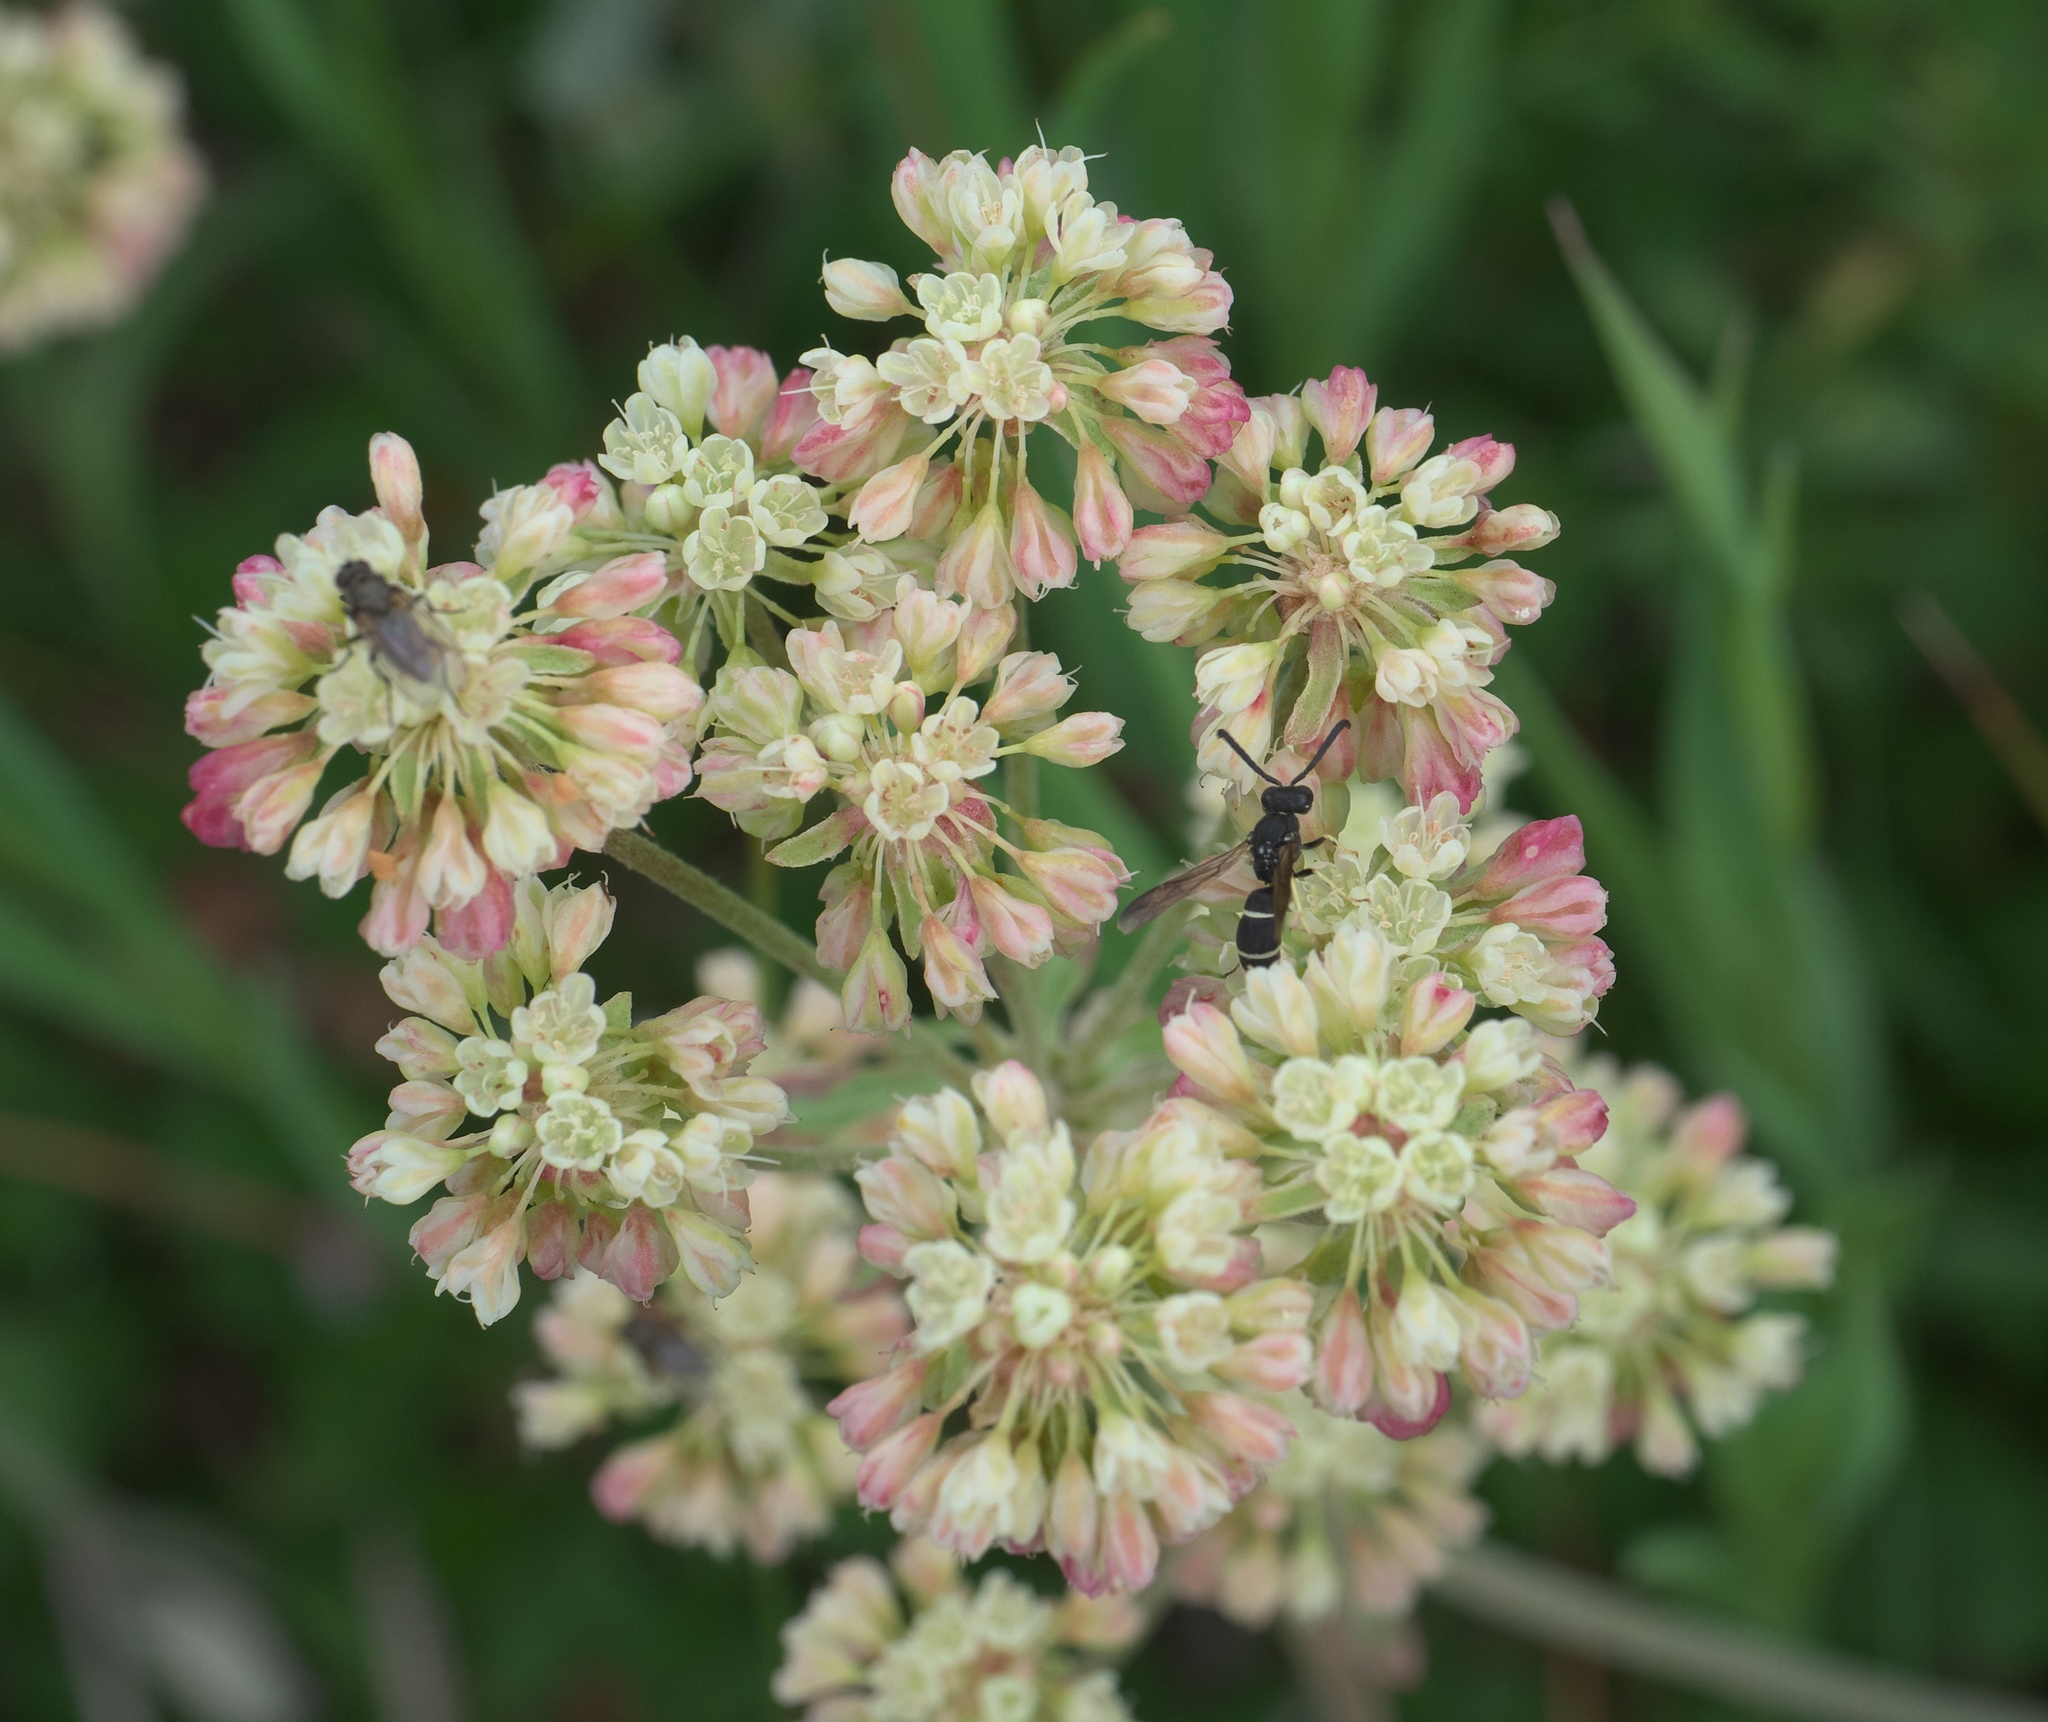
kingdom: Plantae
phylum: Tracheophyta
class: Magnoliopsida
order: Caryophyllales
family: Polygonaceae
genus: Eriogonum
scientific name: Eriogonum umbellatum
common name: Sulfur-buckwheat
